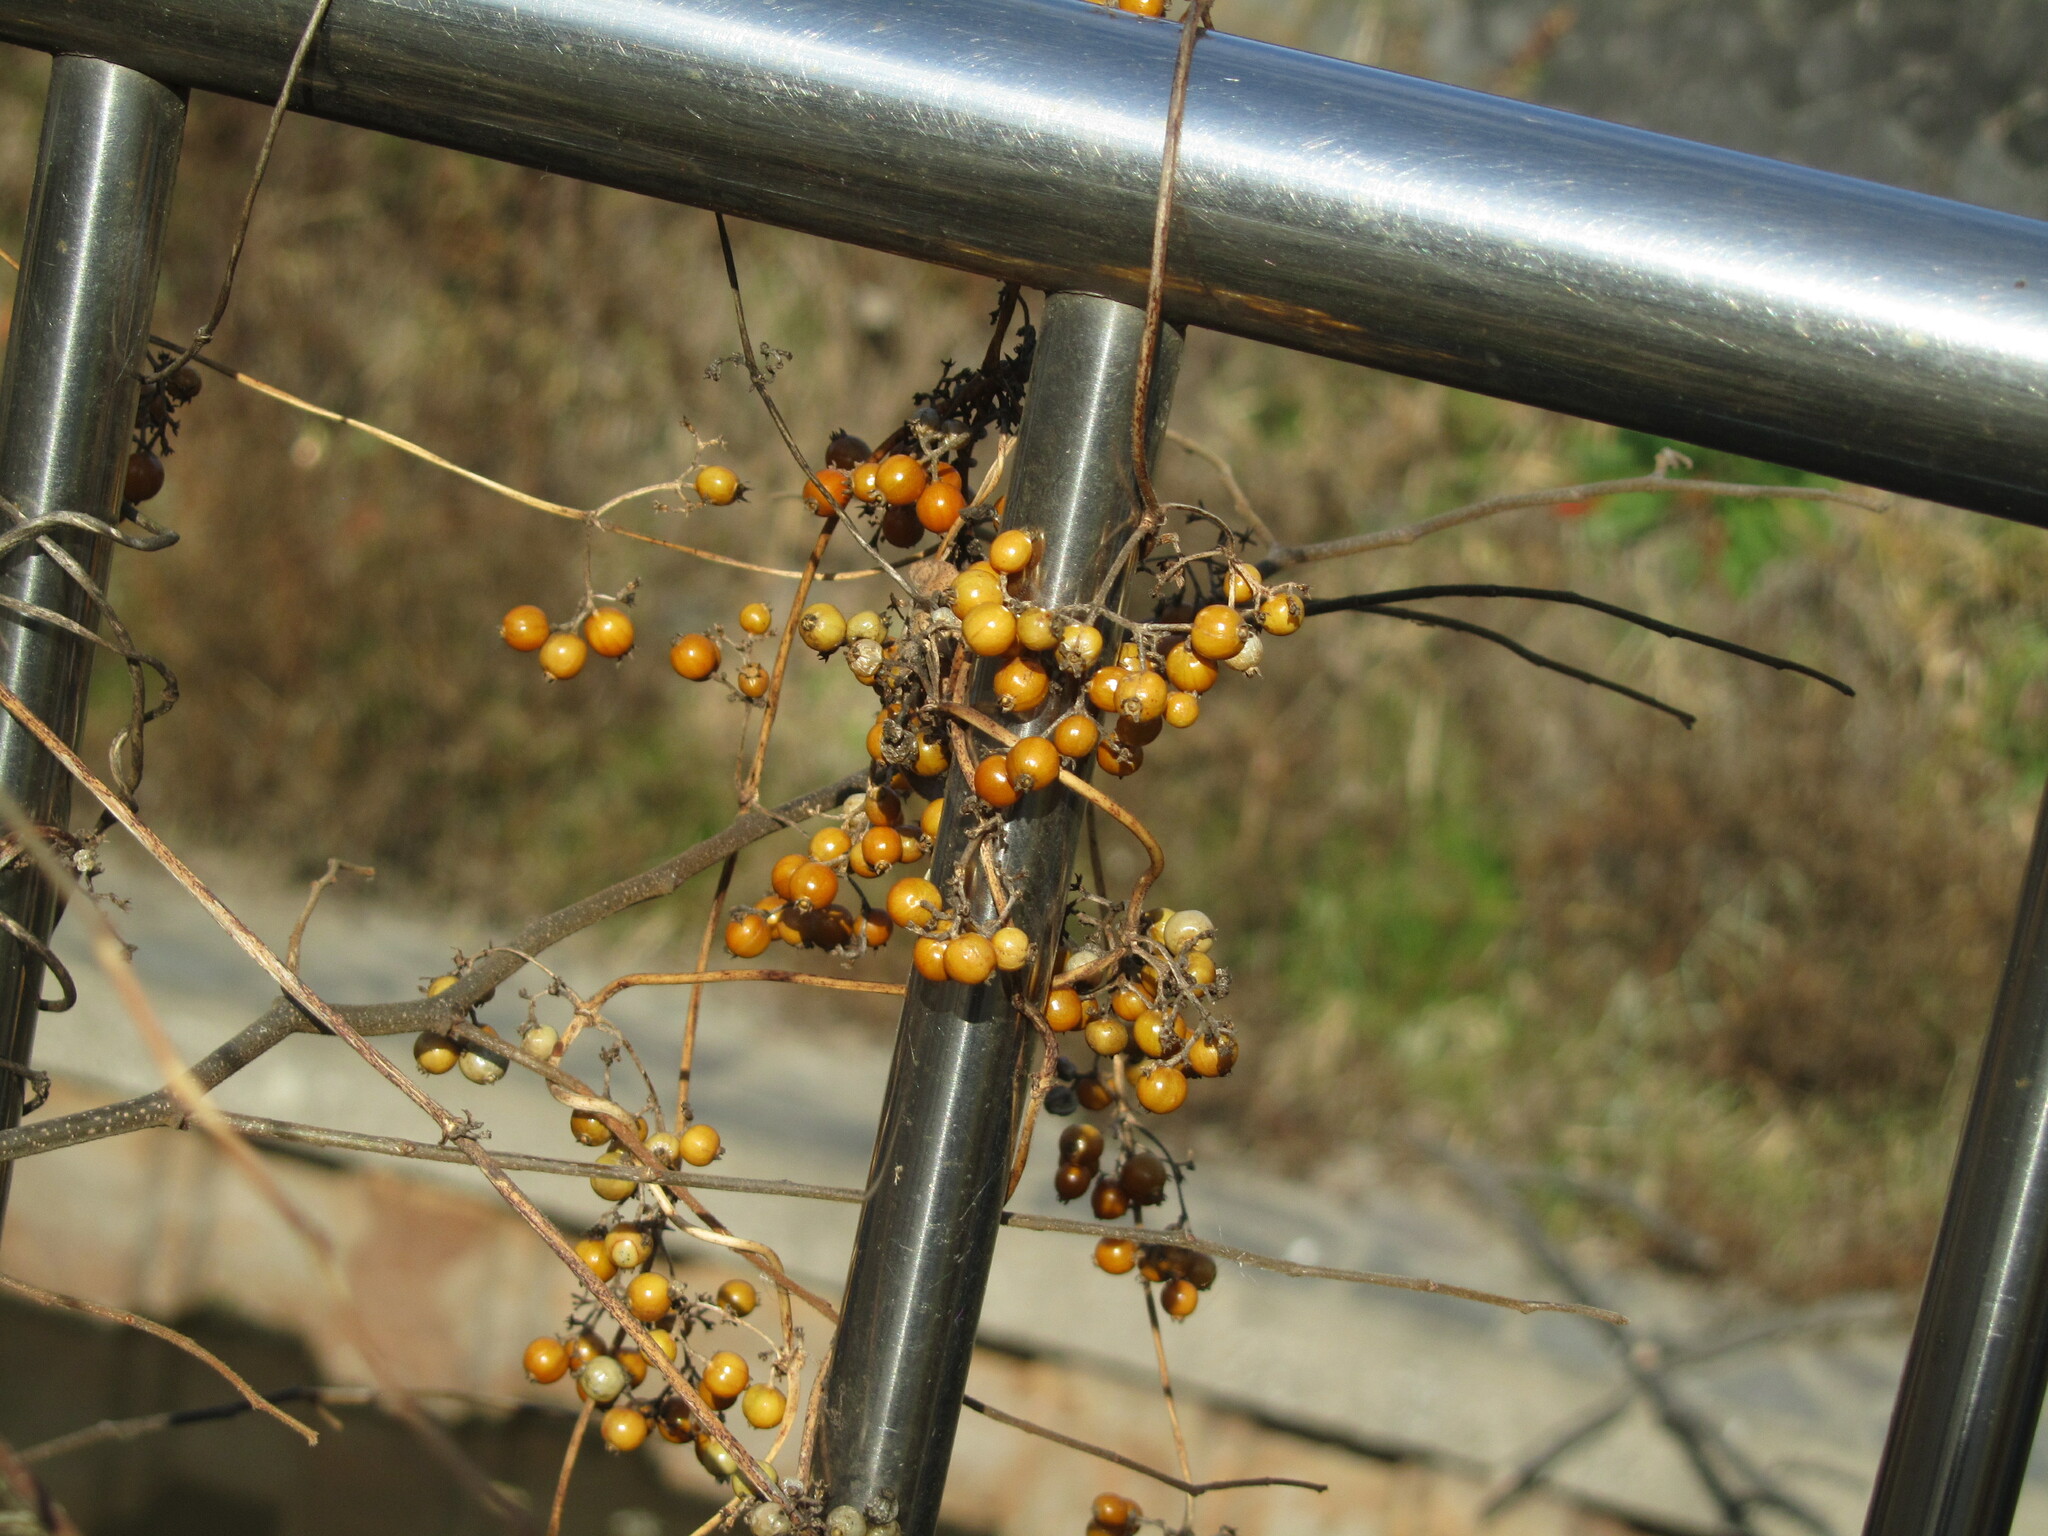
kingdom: Plantae
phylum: Tracheophyta
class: Magnoliopsida
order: Gentianales
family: Rubiaceae
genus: Paederia
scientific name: Paederia foetida
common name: Stinkvine
